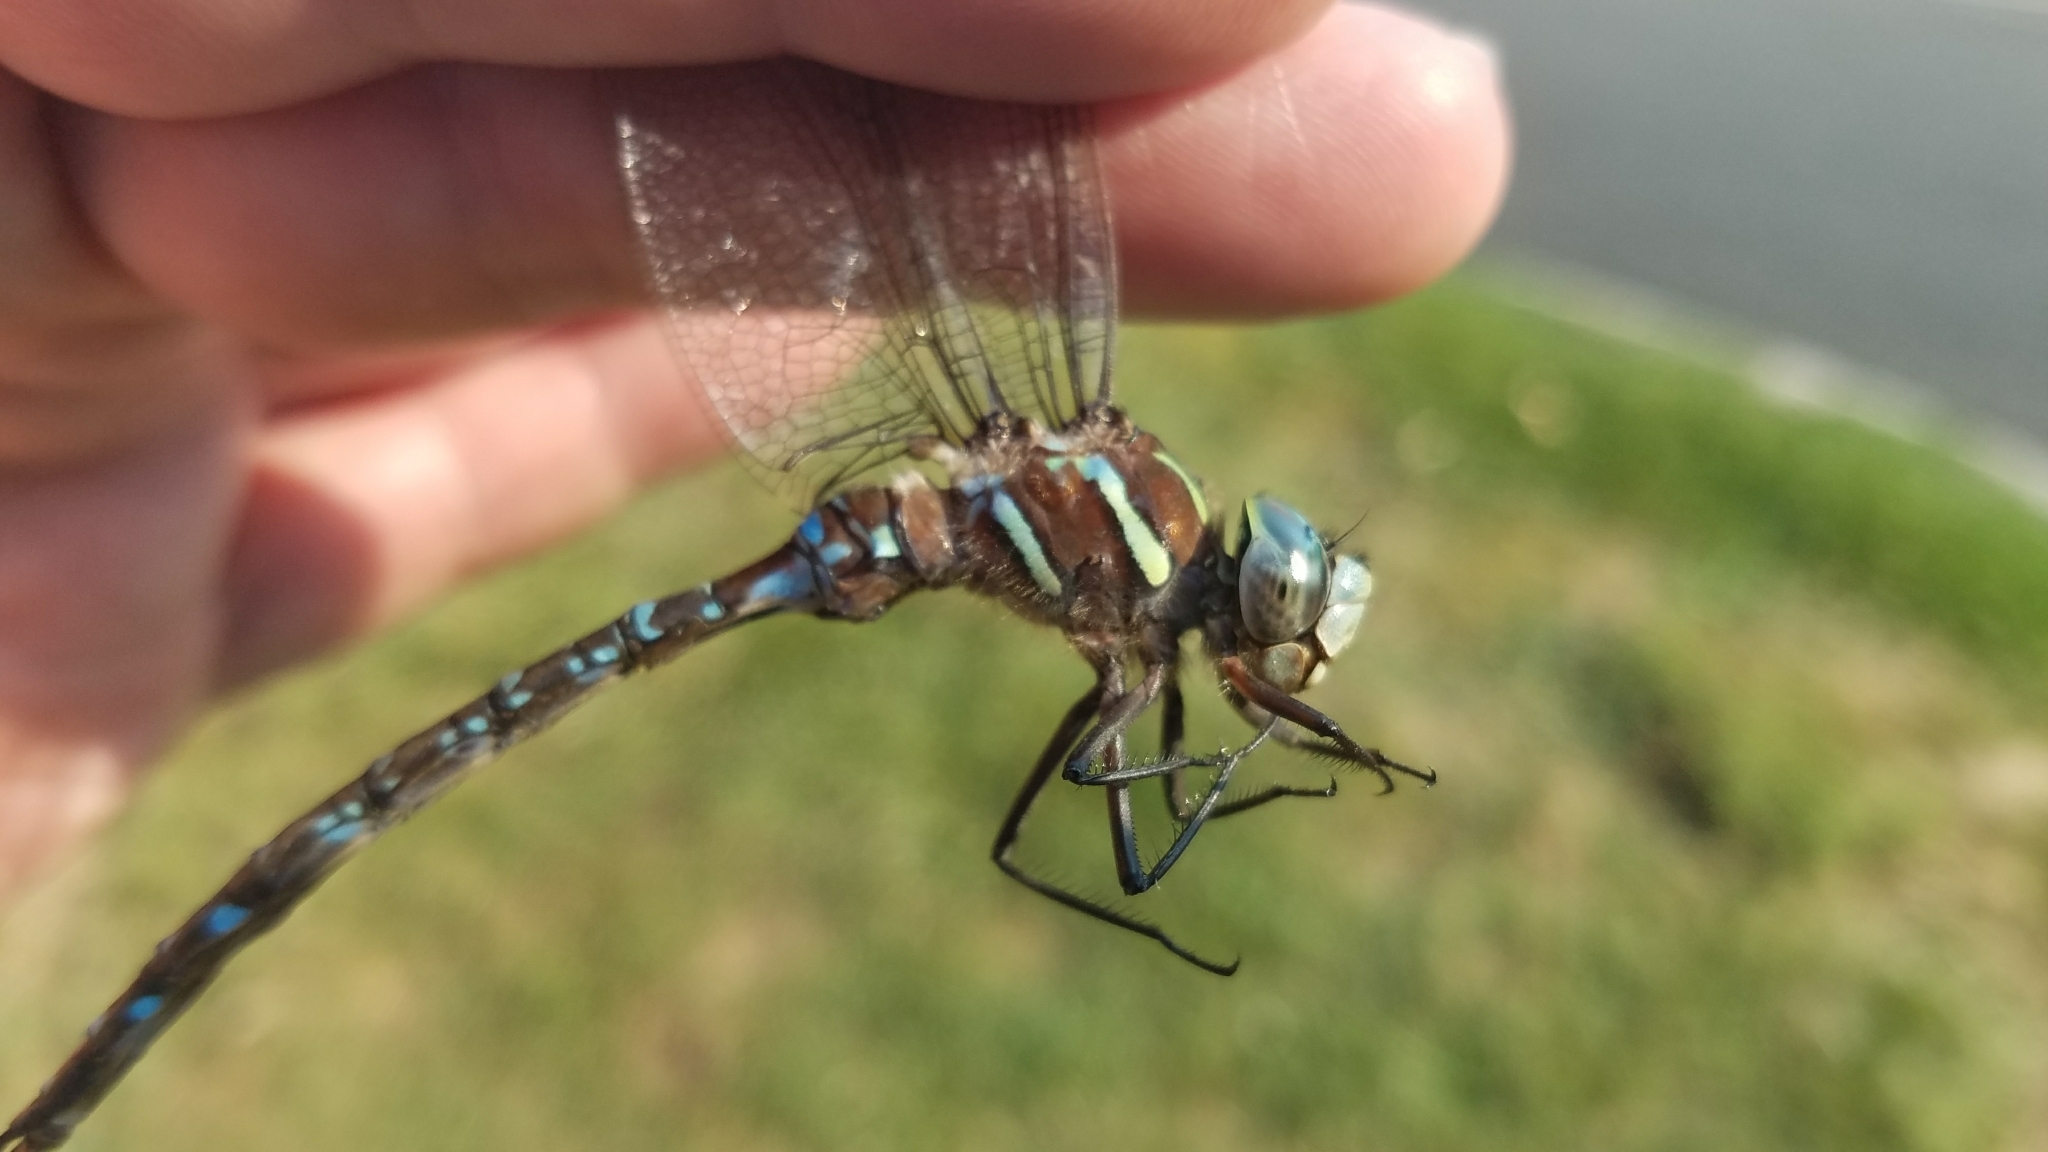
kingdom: Animalia
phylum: Arthropoda
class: Insecta
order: Odonata
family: Aeshnidae
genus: Aeshna
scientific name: Aeshna umbrosa
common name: Shadow darner
